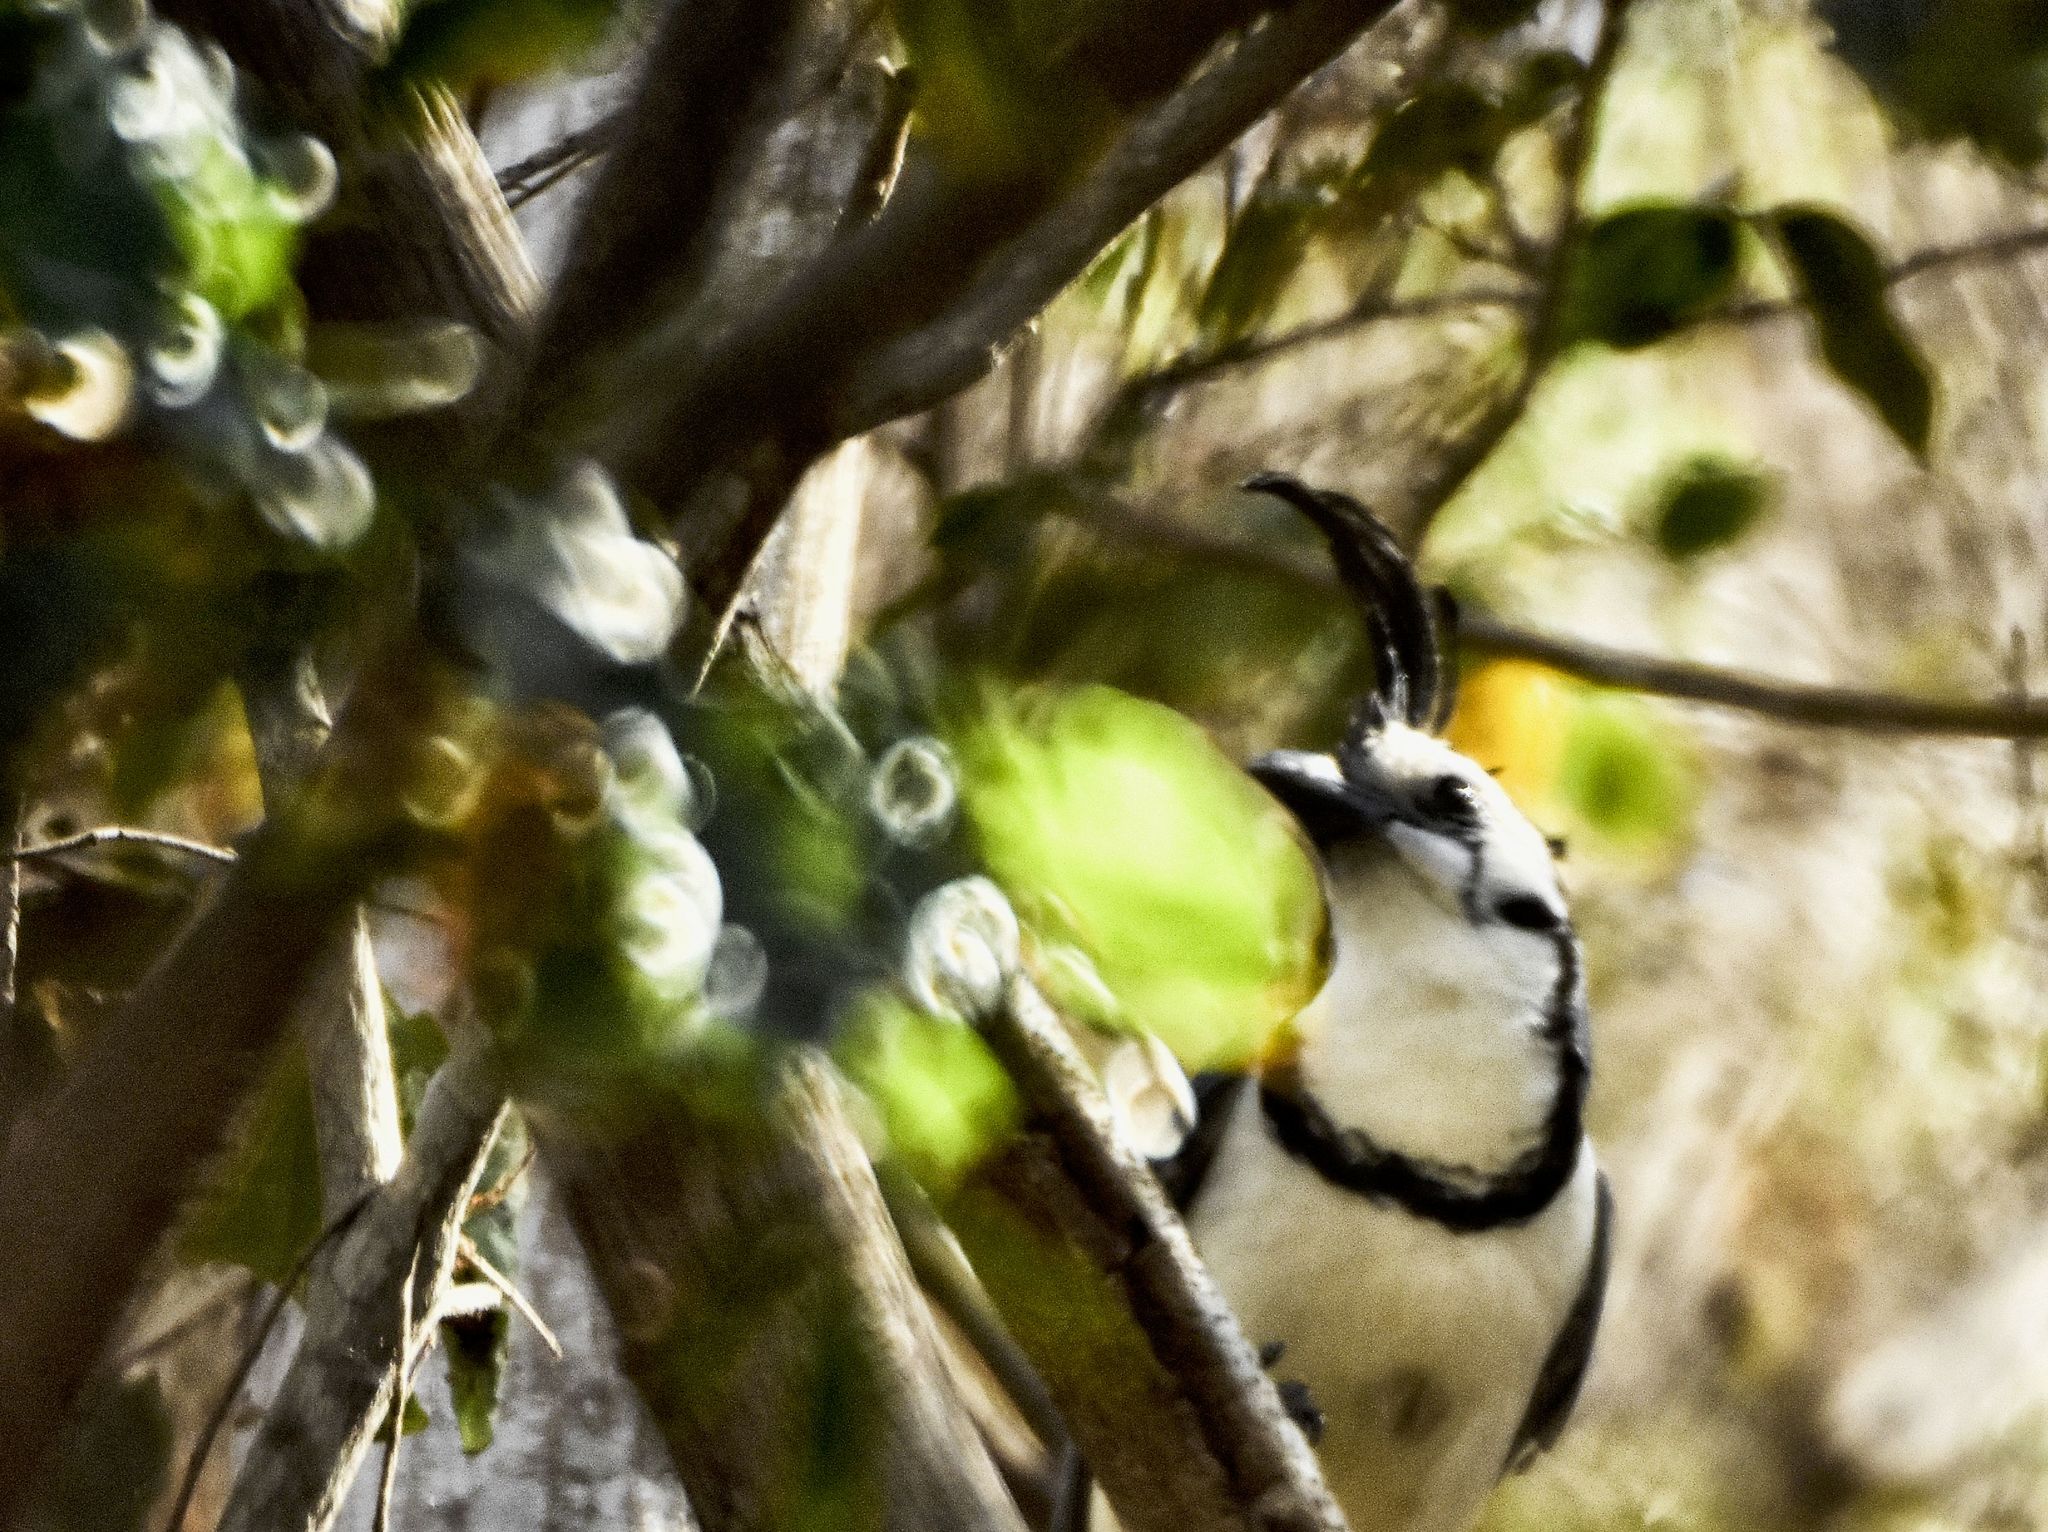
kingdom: Animalia
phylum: Chordata
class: Aves
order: Passeriformes
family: Corvidae
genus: Calocitta
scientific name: Calocitta formosa
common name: White-throated magpie-jay
